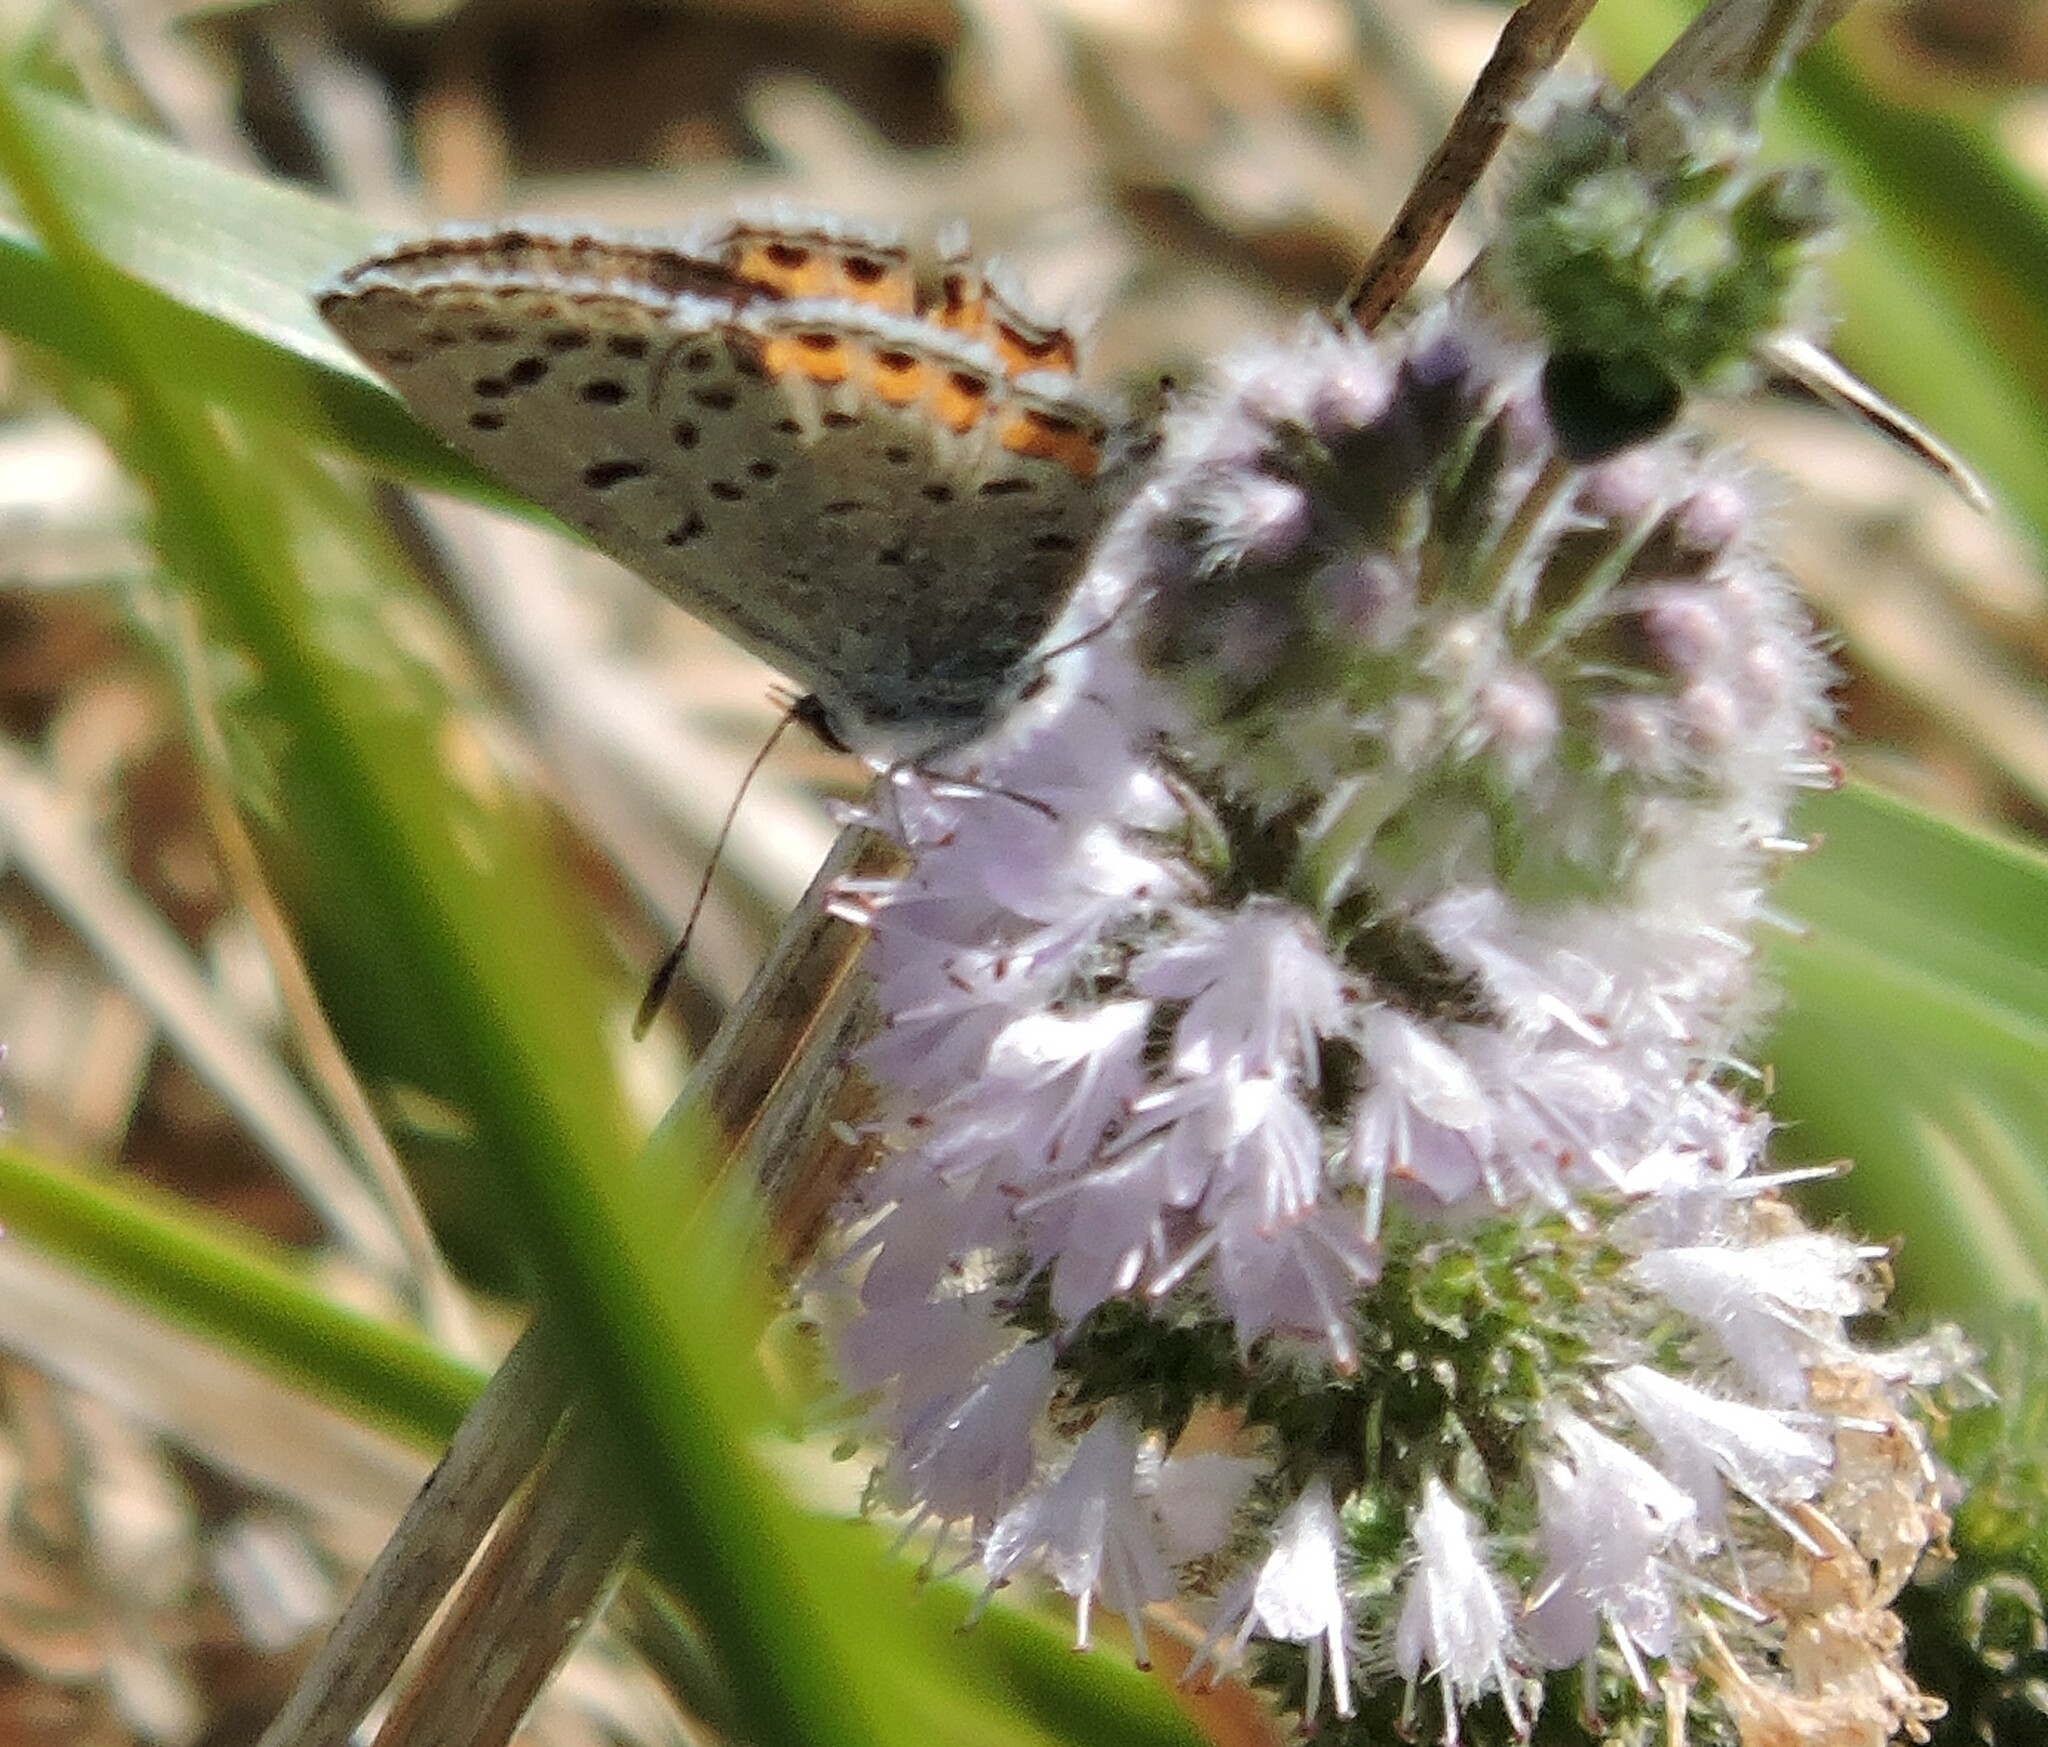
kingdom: Animalia
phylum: Arthropoda
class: Insecta
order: Lepidoptera
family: Lycaenidae
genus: Icaricia
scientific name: Icaricia acmon
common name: Acmon blue
